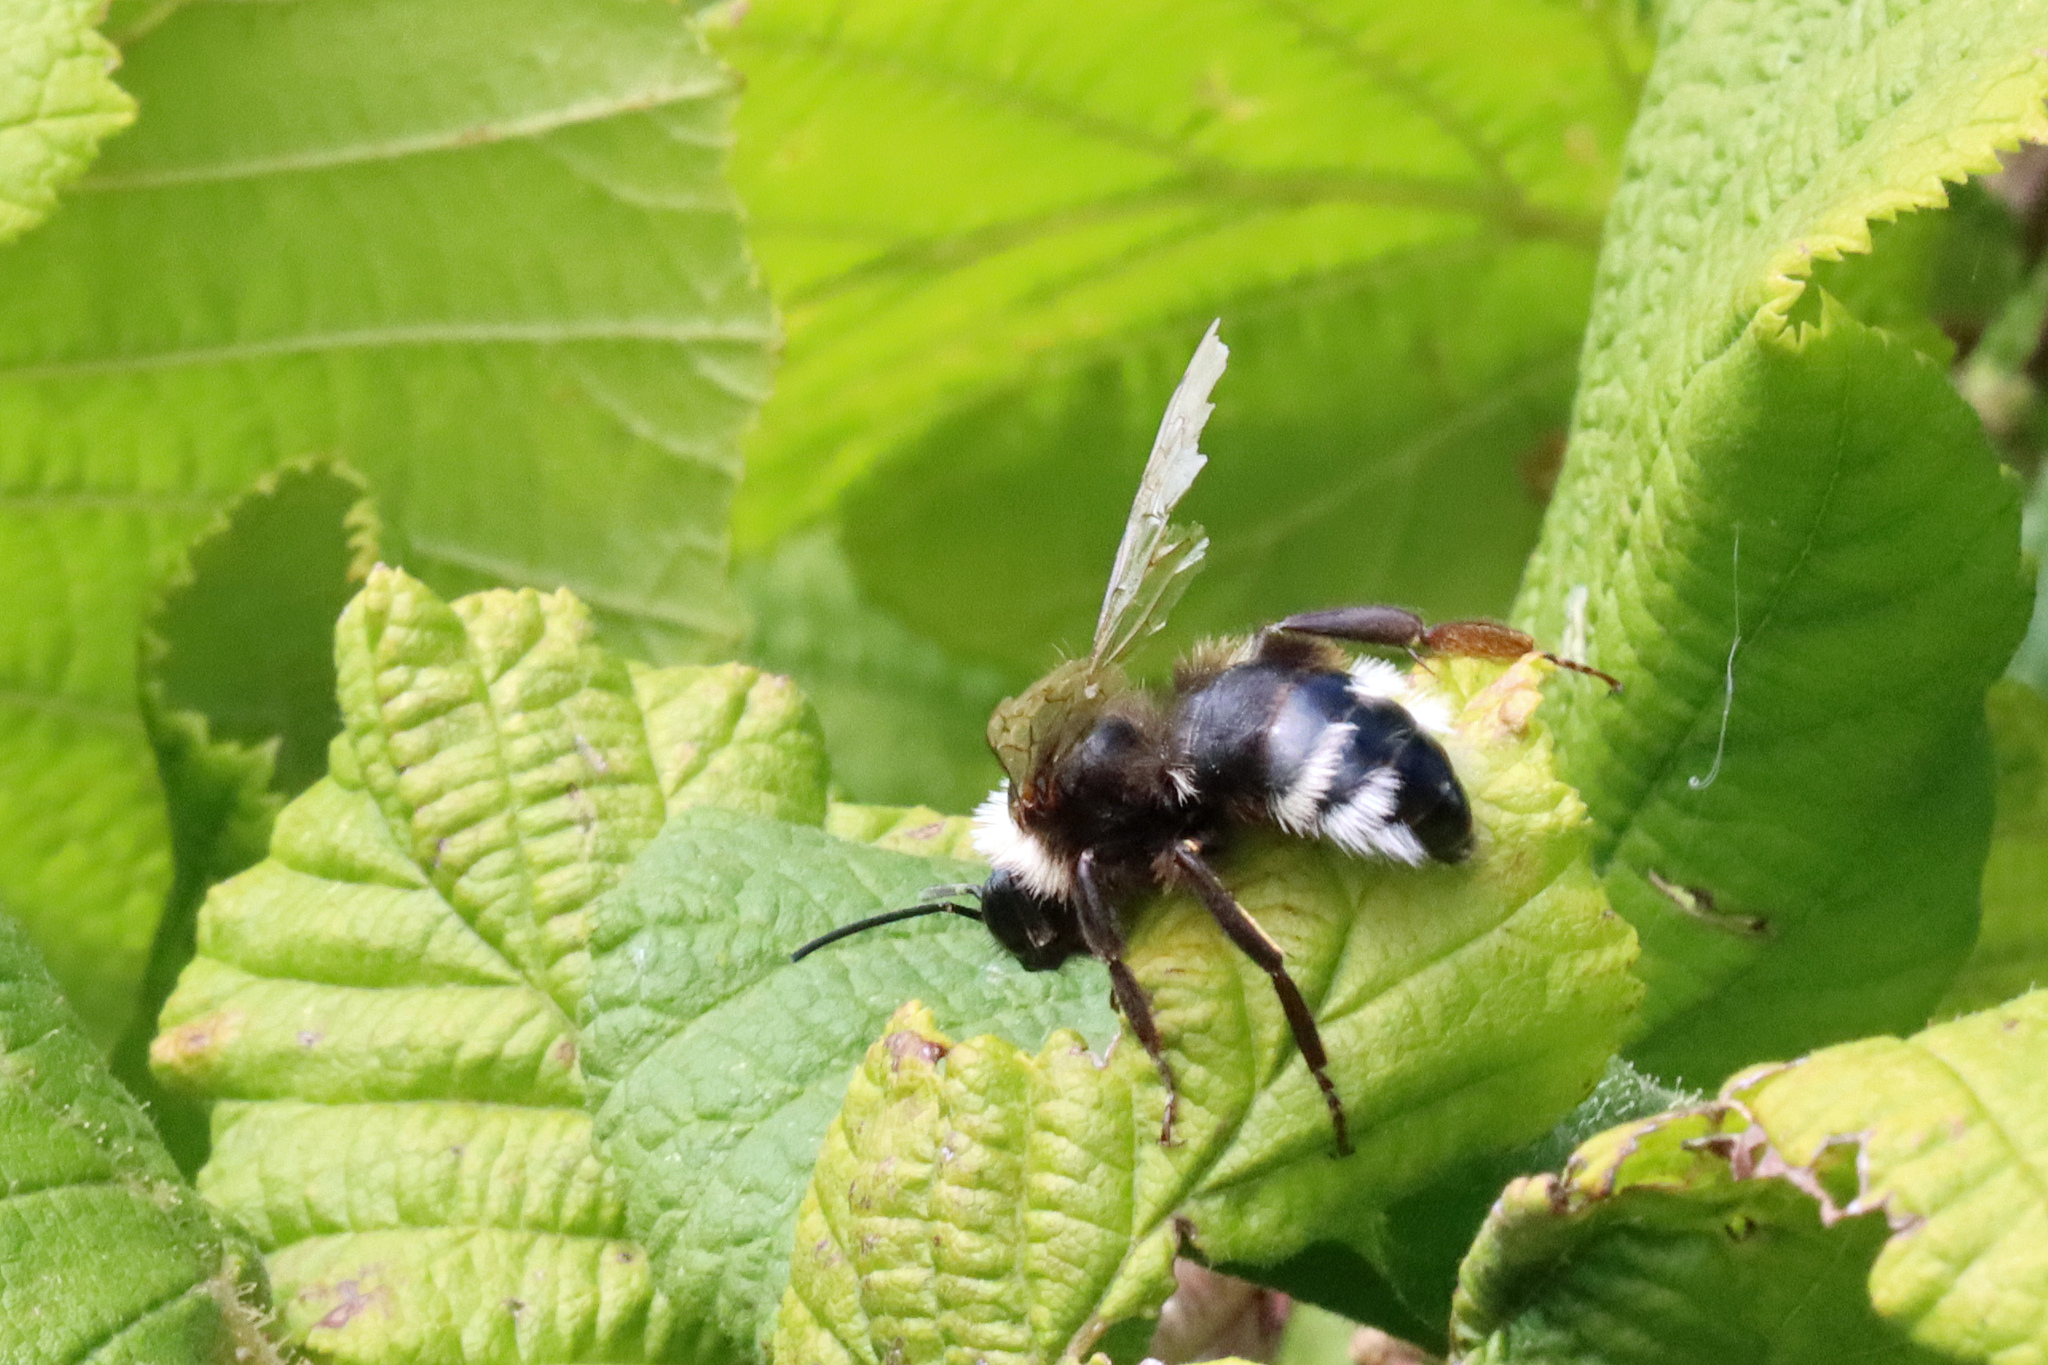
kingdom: Animalia
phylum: Arthropoda
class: Insecta
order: Hymenoptera
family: Apidae
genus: Bombus
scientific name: Bombus
